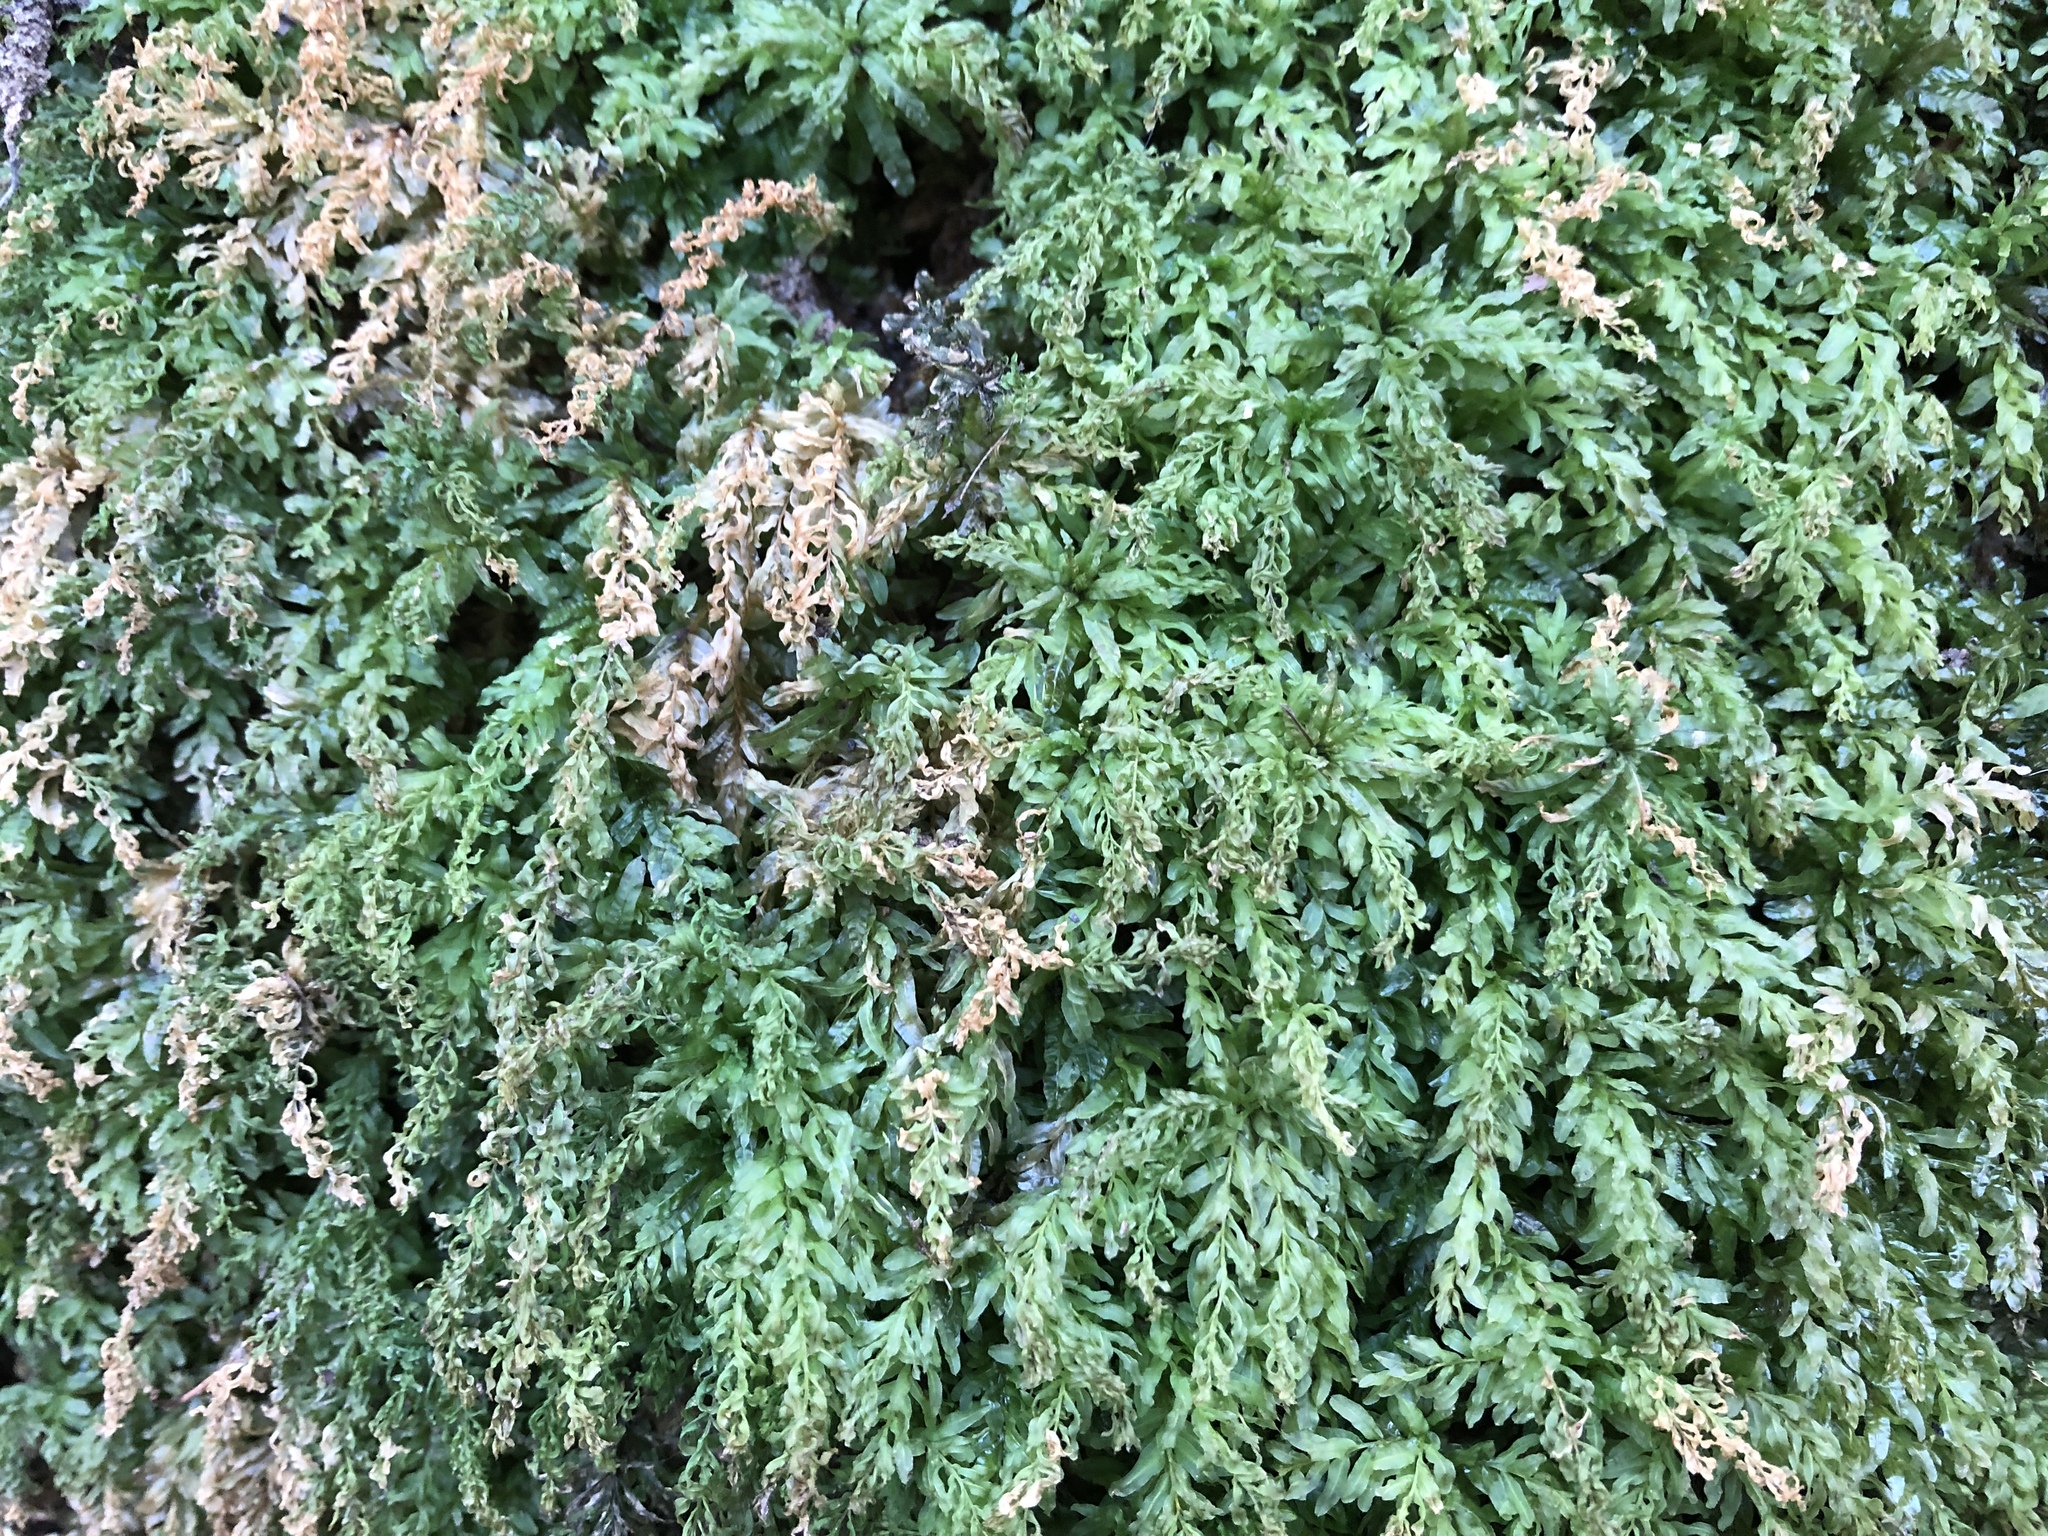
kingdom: Plantae
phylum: Bryophyta
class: Bryopsida
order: Bryales
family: Mniaceae
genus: Plagiomnium
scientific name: Plagiomnium undulatum
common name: Hart's-tongue thyme-moss
